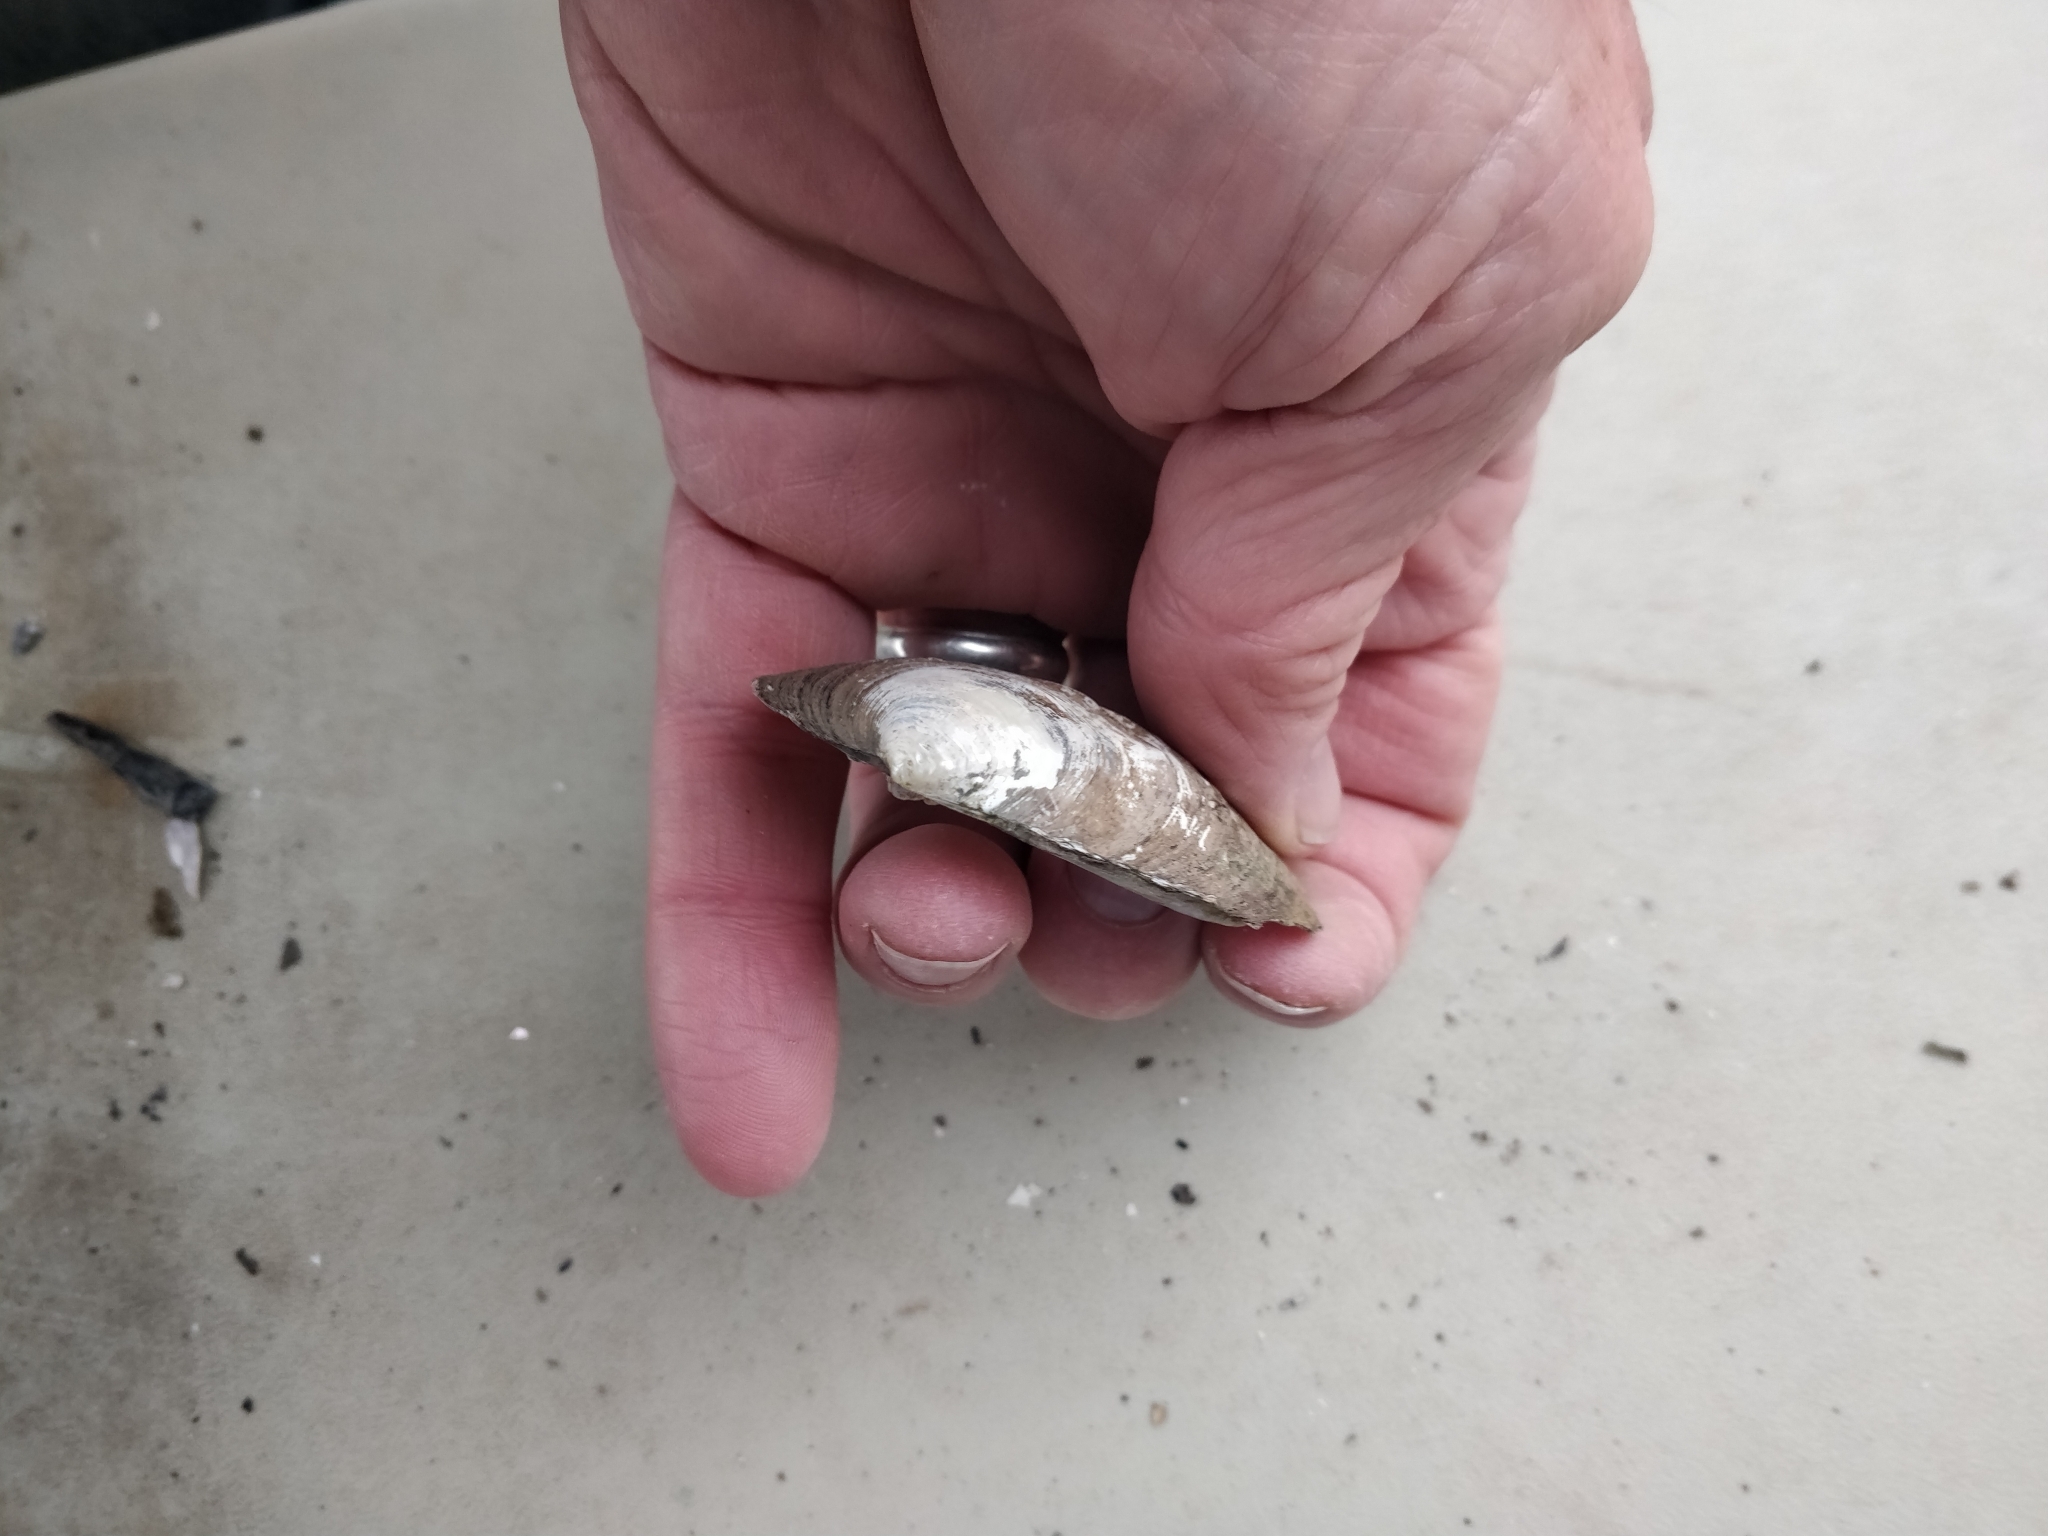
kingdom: Animalia
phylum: Mollusca
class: Bivalvia
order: Unionida
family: Unionidae
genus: Amblema
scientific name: Amblema plicata
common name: Threeridge
